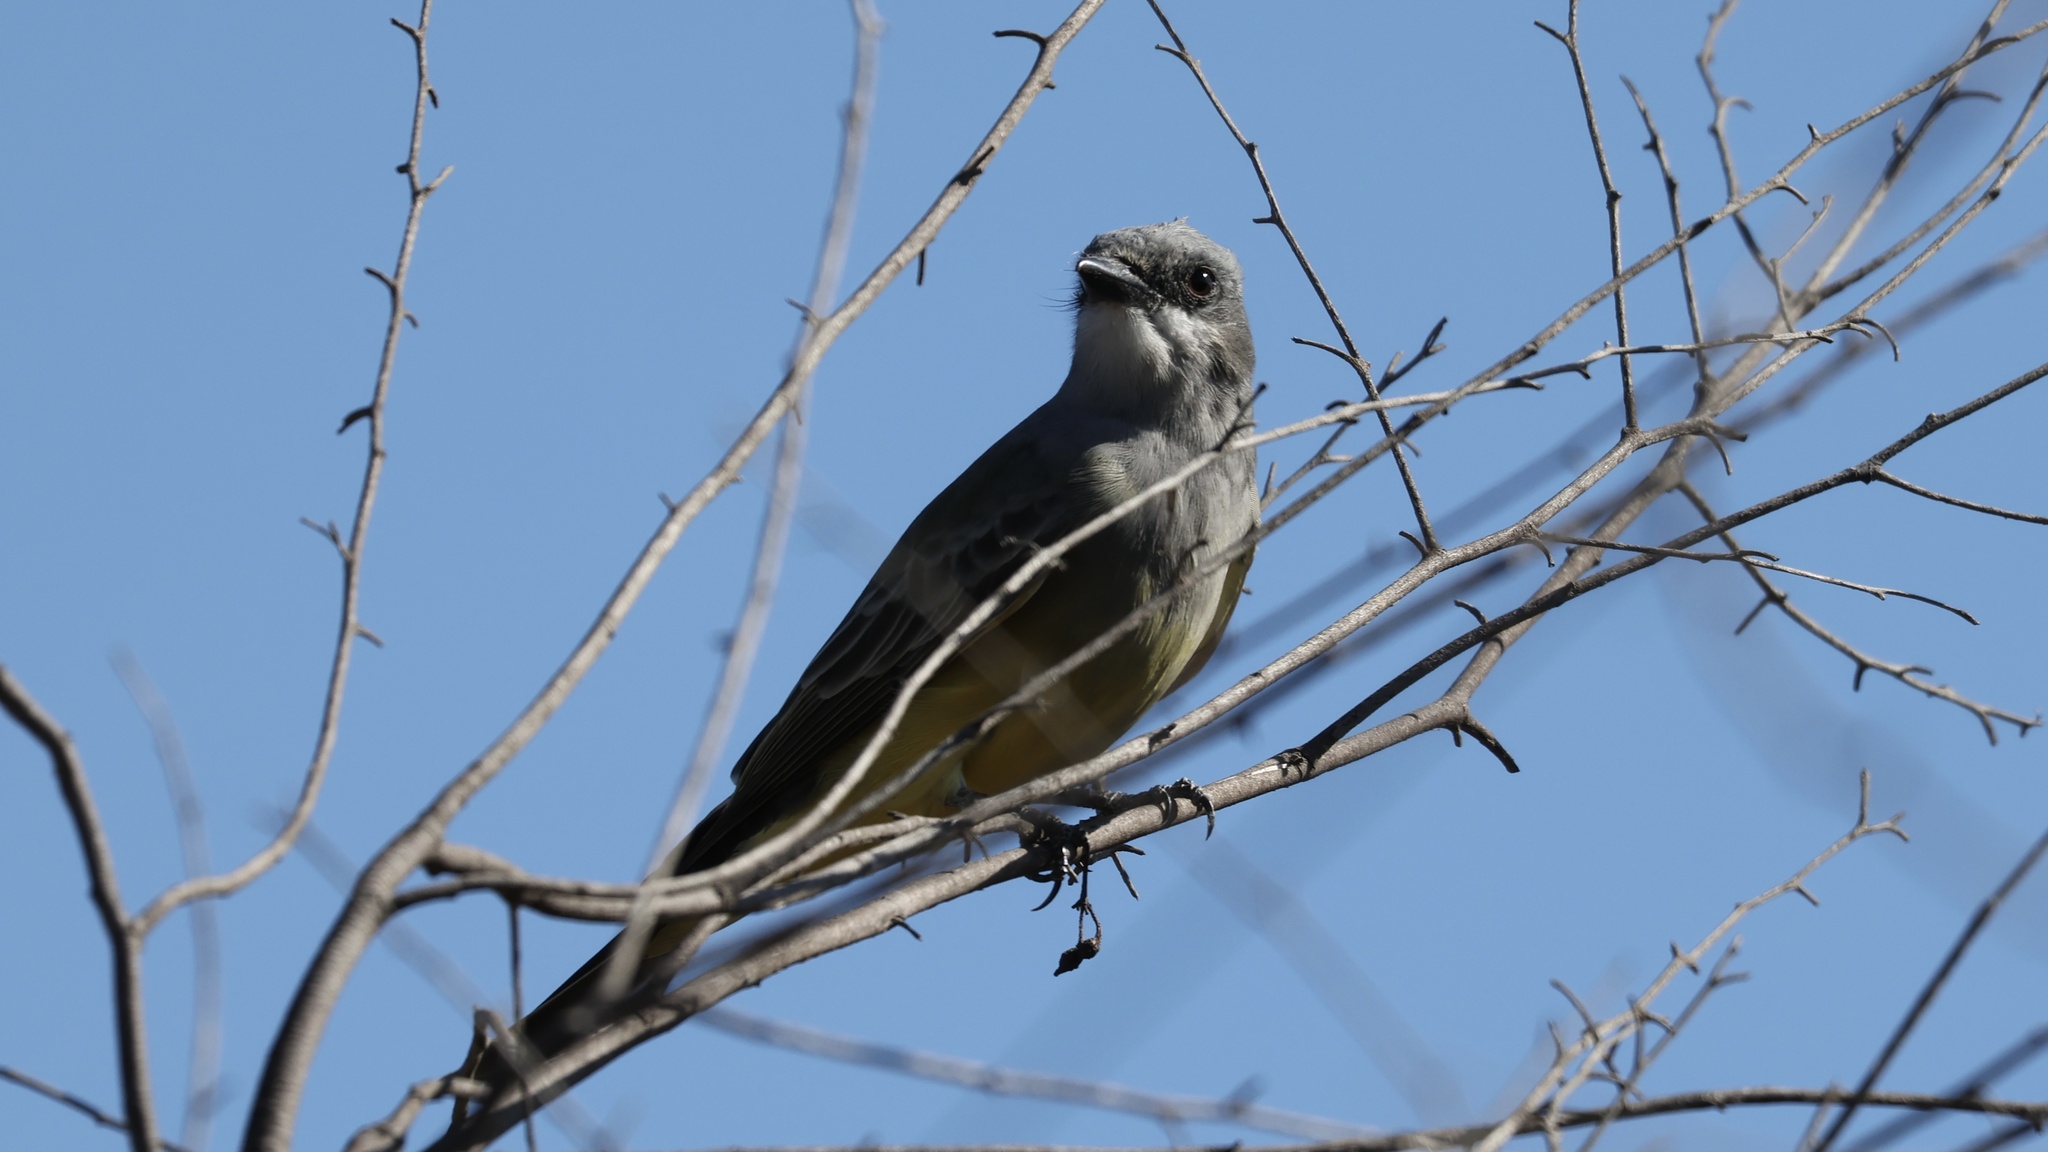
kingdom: Animalia
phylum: Chordata
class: Aves
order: Passeriformes
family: Tyrannidae
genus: Tyrannus
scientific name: Tyrannus vociferans
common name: Cassin's kingbird
